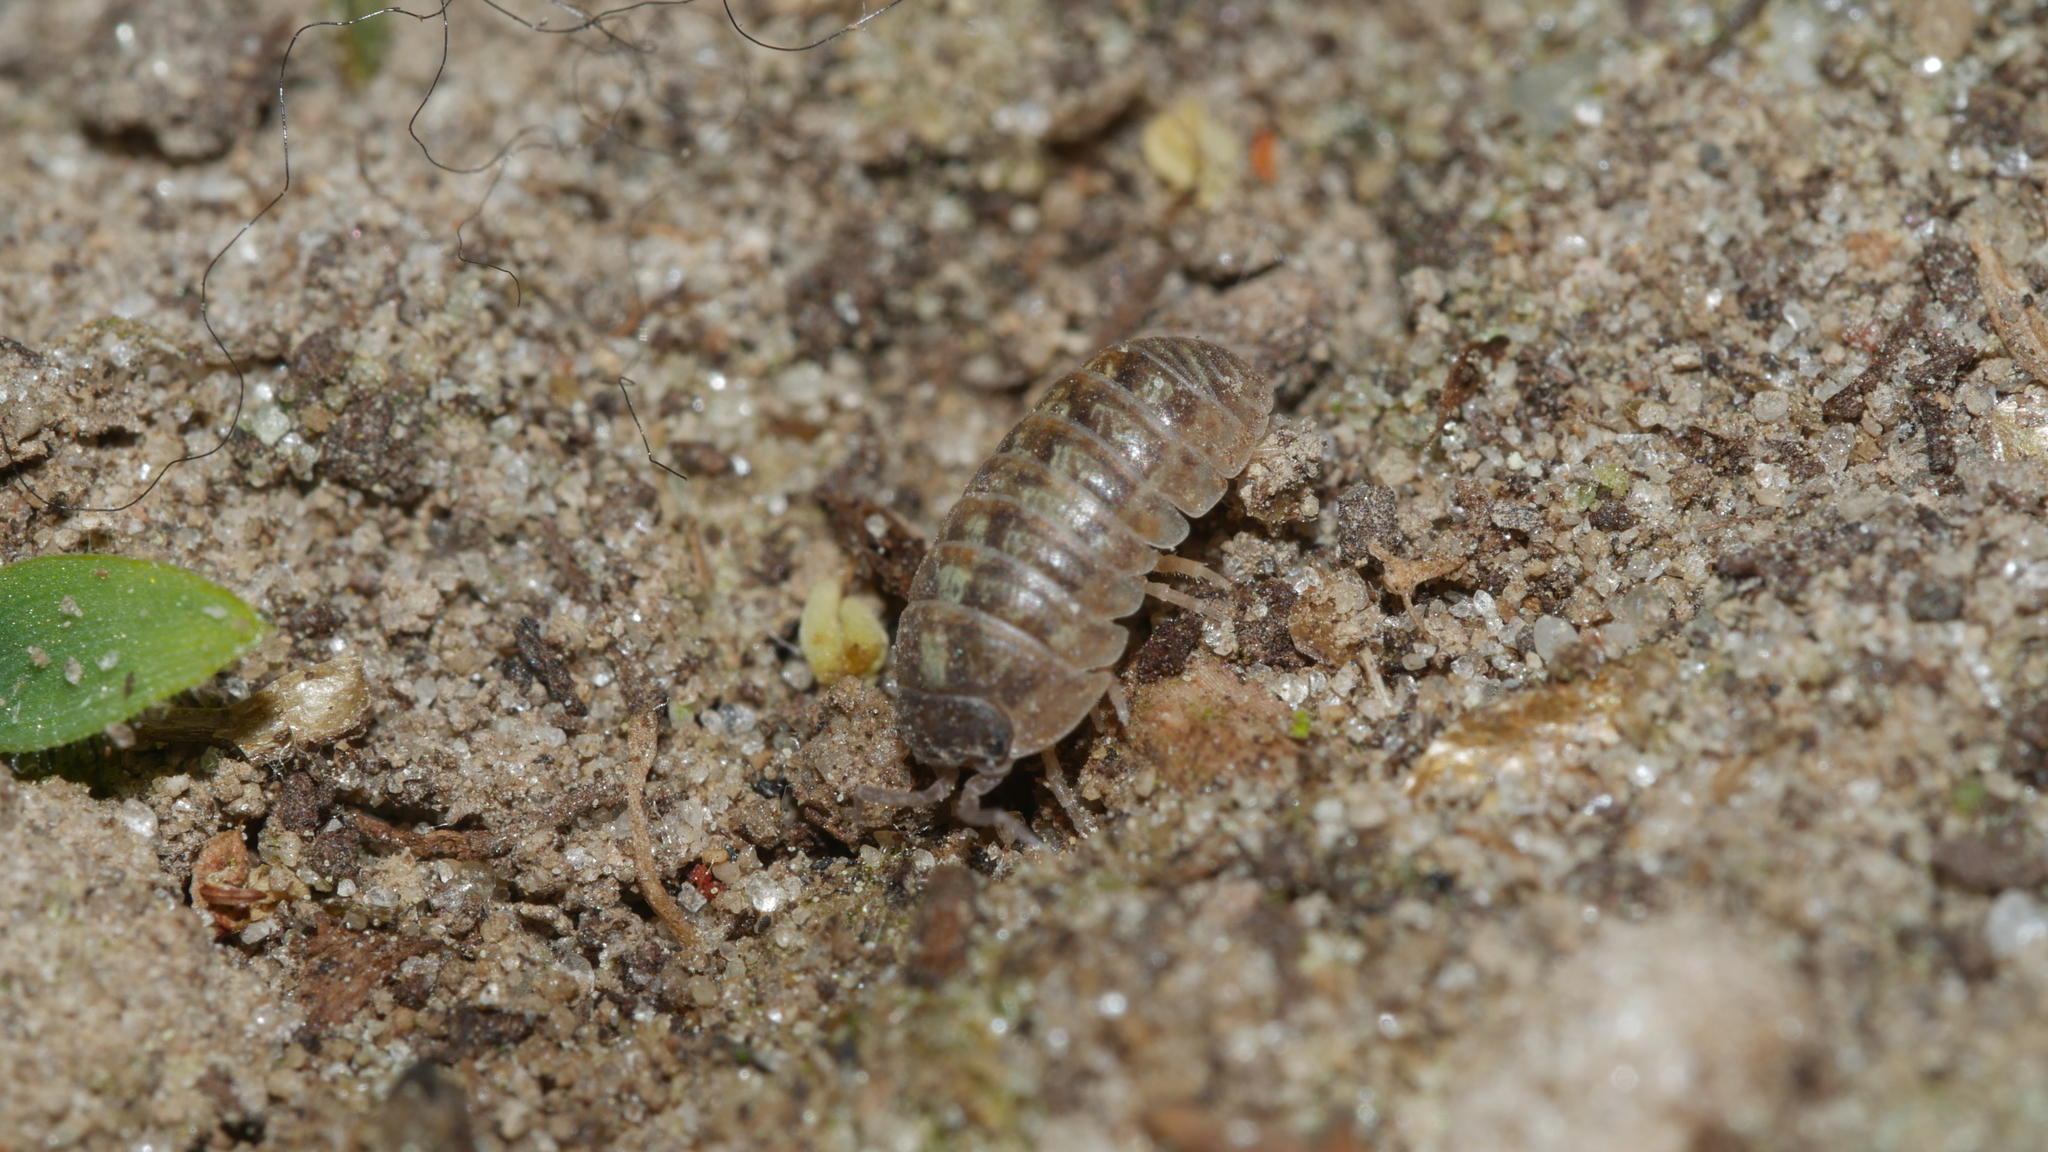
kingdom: Animalia
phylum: Arthropoda
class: Malacostraca
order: Isopoda
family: Armadillidiidae
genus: Armadillidium
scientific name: Armadillidium vulgare
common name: Common pill woodlouse
